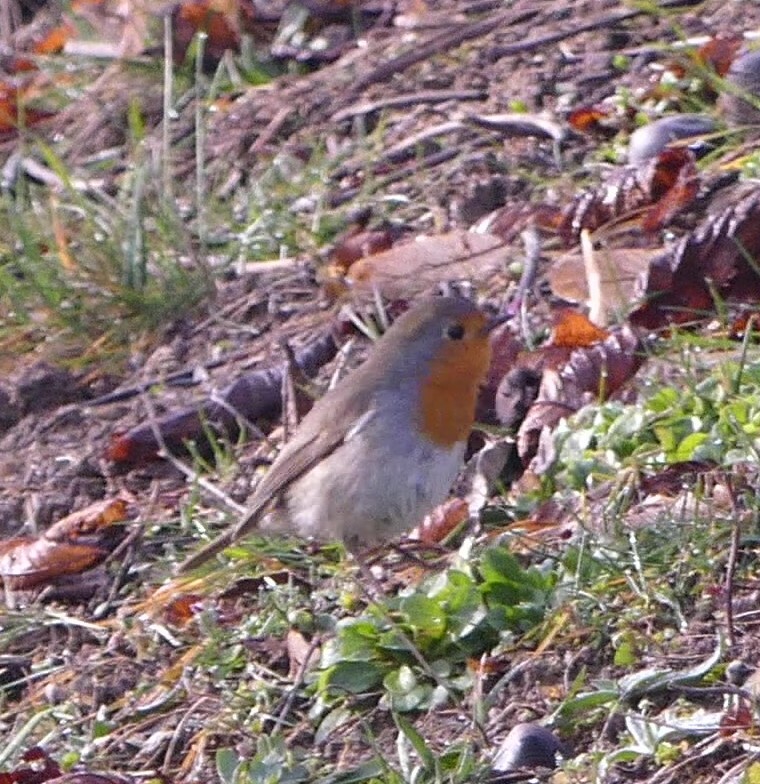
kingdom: Animalia
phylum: Chordata
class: Aves
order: Passeriformes
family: Muscicapidae
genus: Erithacus
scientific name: Erithacus rubecula
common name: European robin
